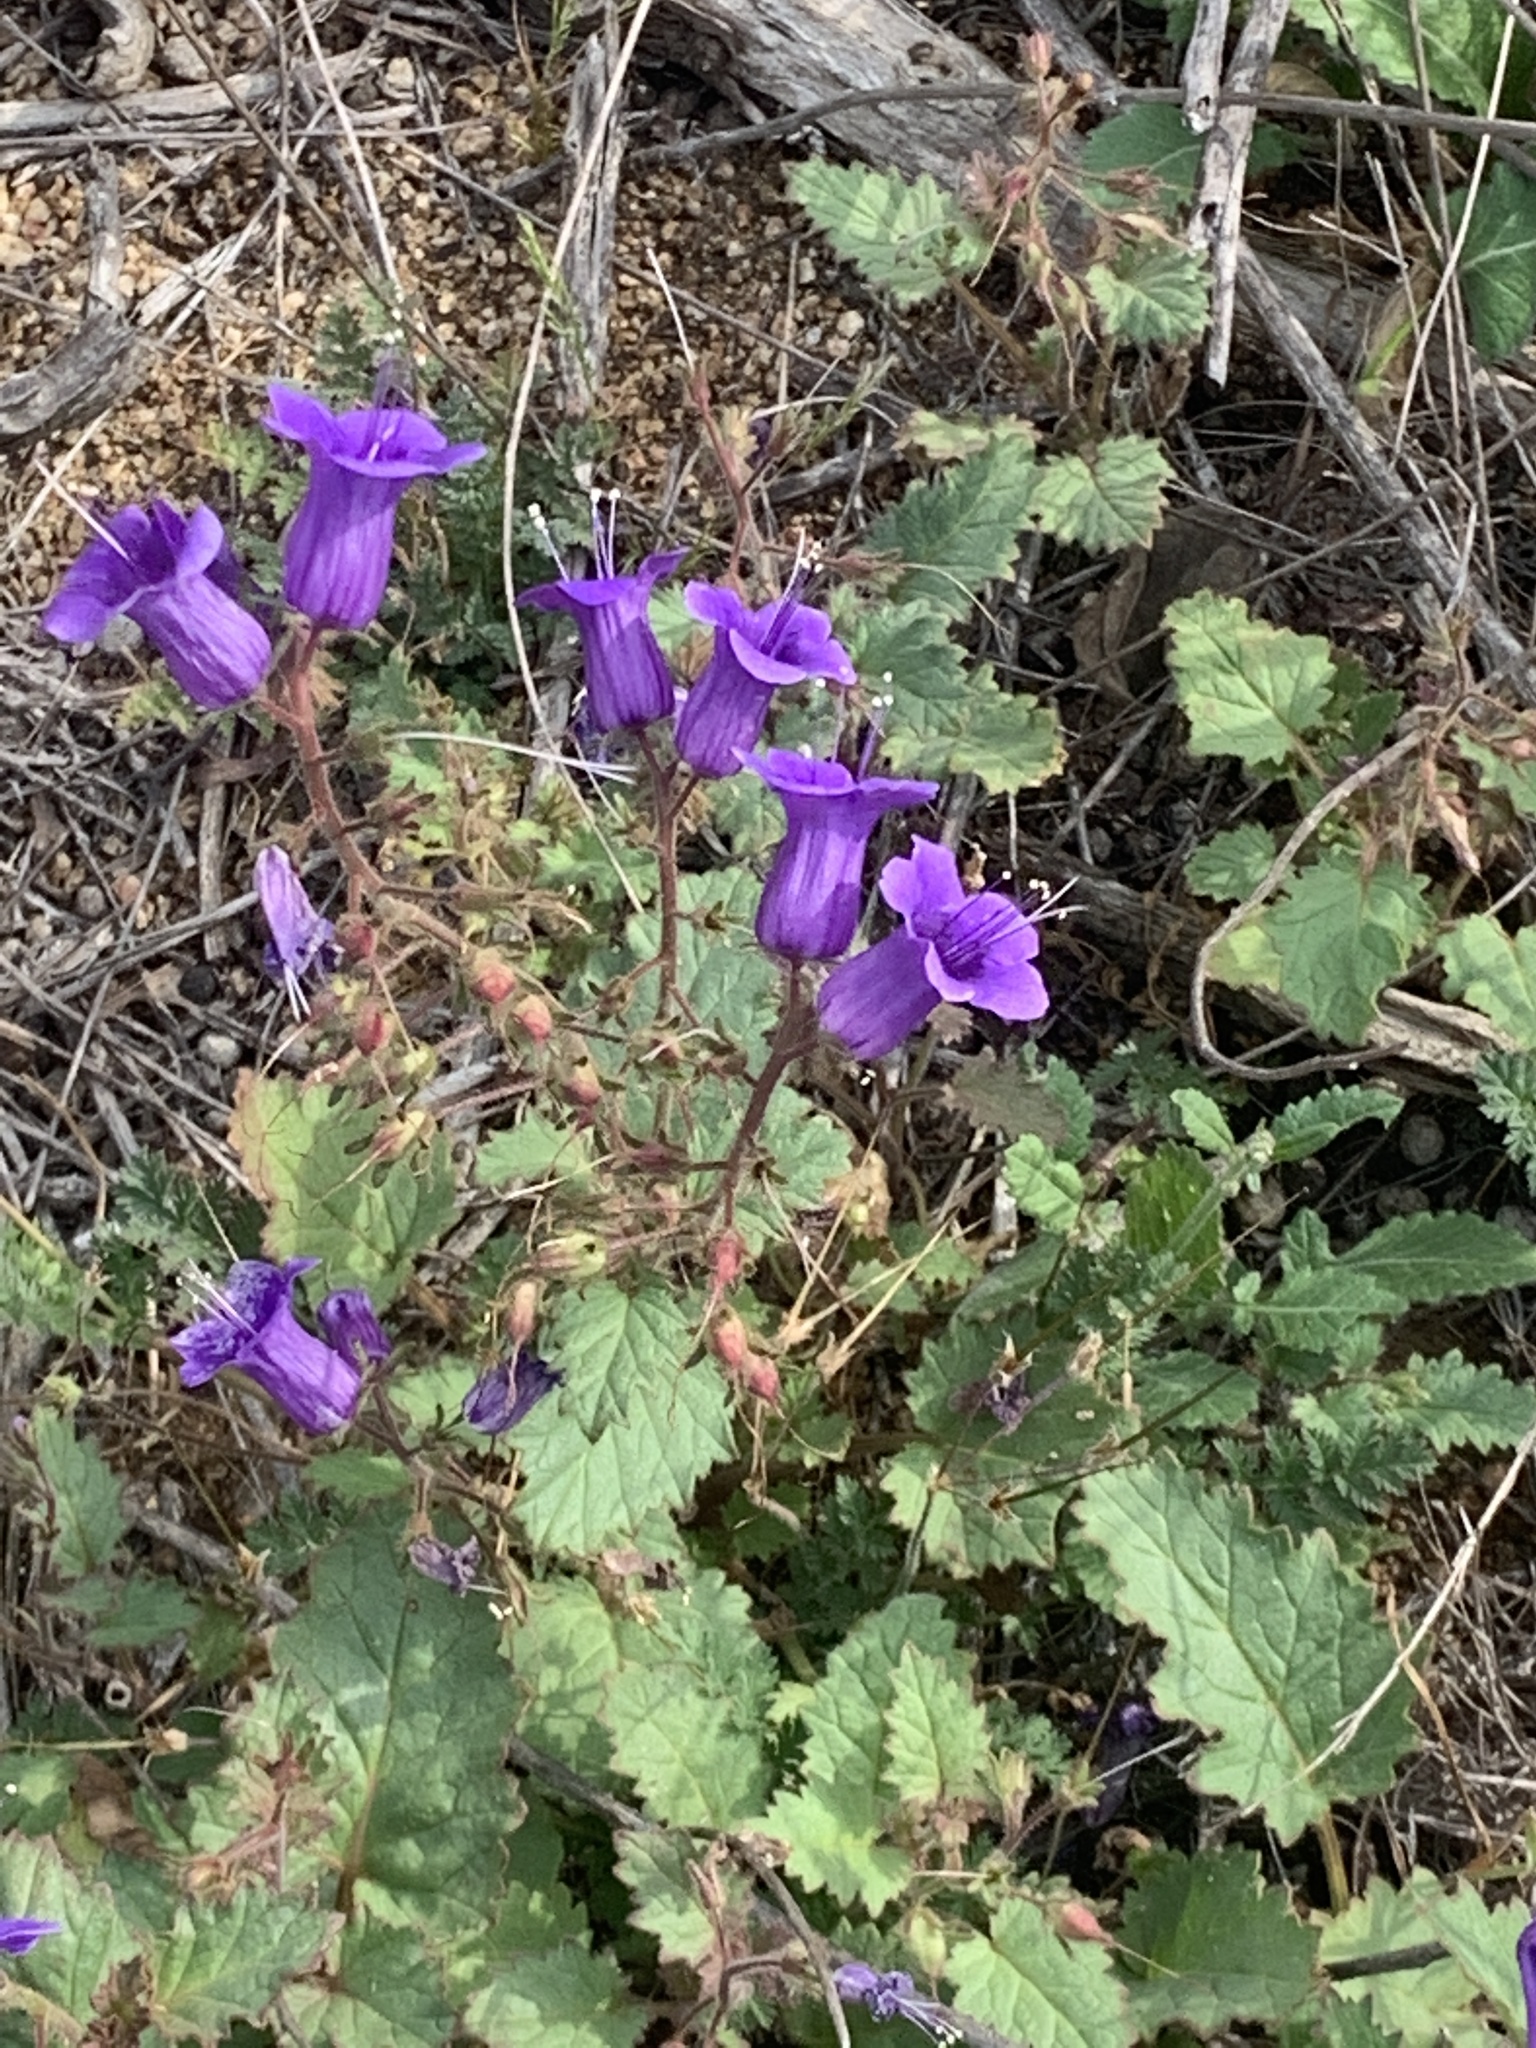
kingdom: Plantae
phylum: Tracheophyta
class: Magnoliopsida
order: Boraginales
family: Hydrophyllaceae
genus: Phacelia
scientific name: Phacelia minor
